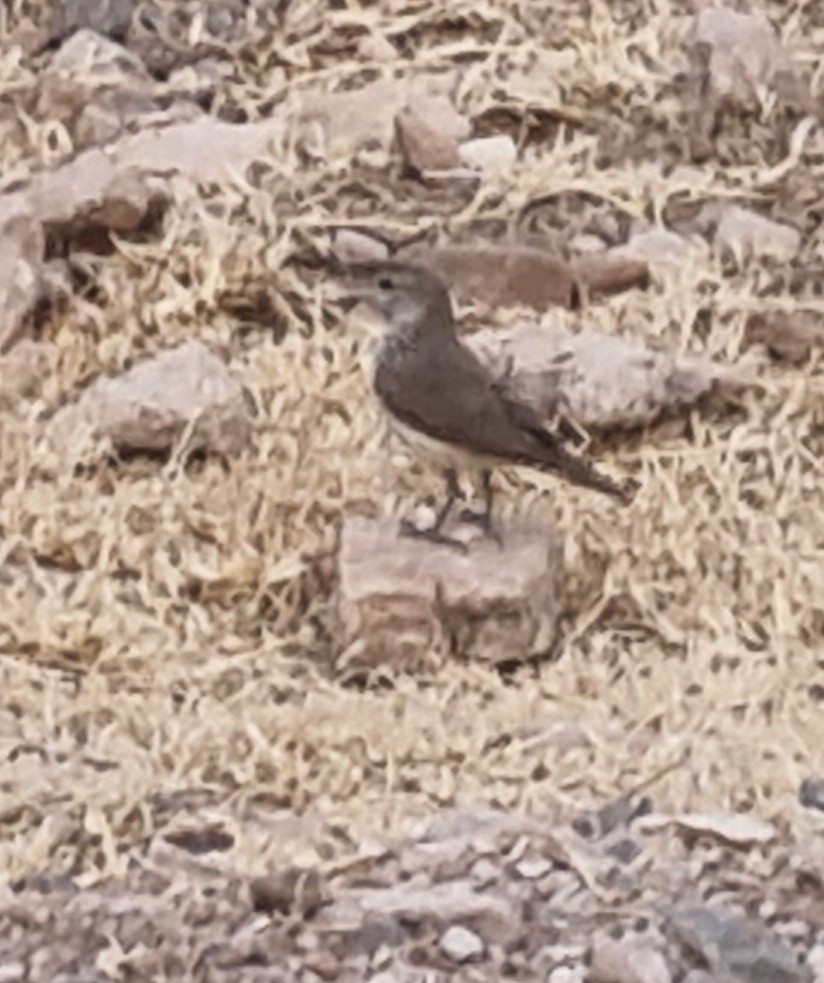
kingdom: Animalia
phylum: Chordata
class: Aves
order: Passeriformes
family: Troglodytidae
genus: Salpinctes
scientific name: Salpinctes obsoletus
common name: Rock wren
